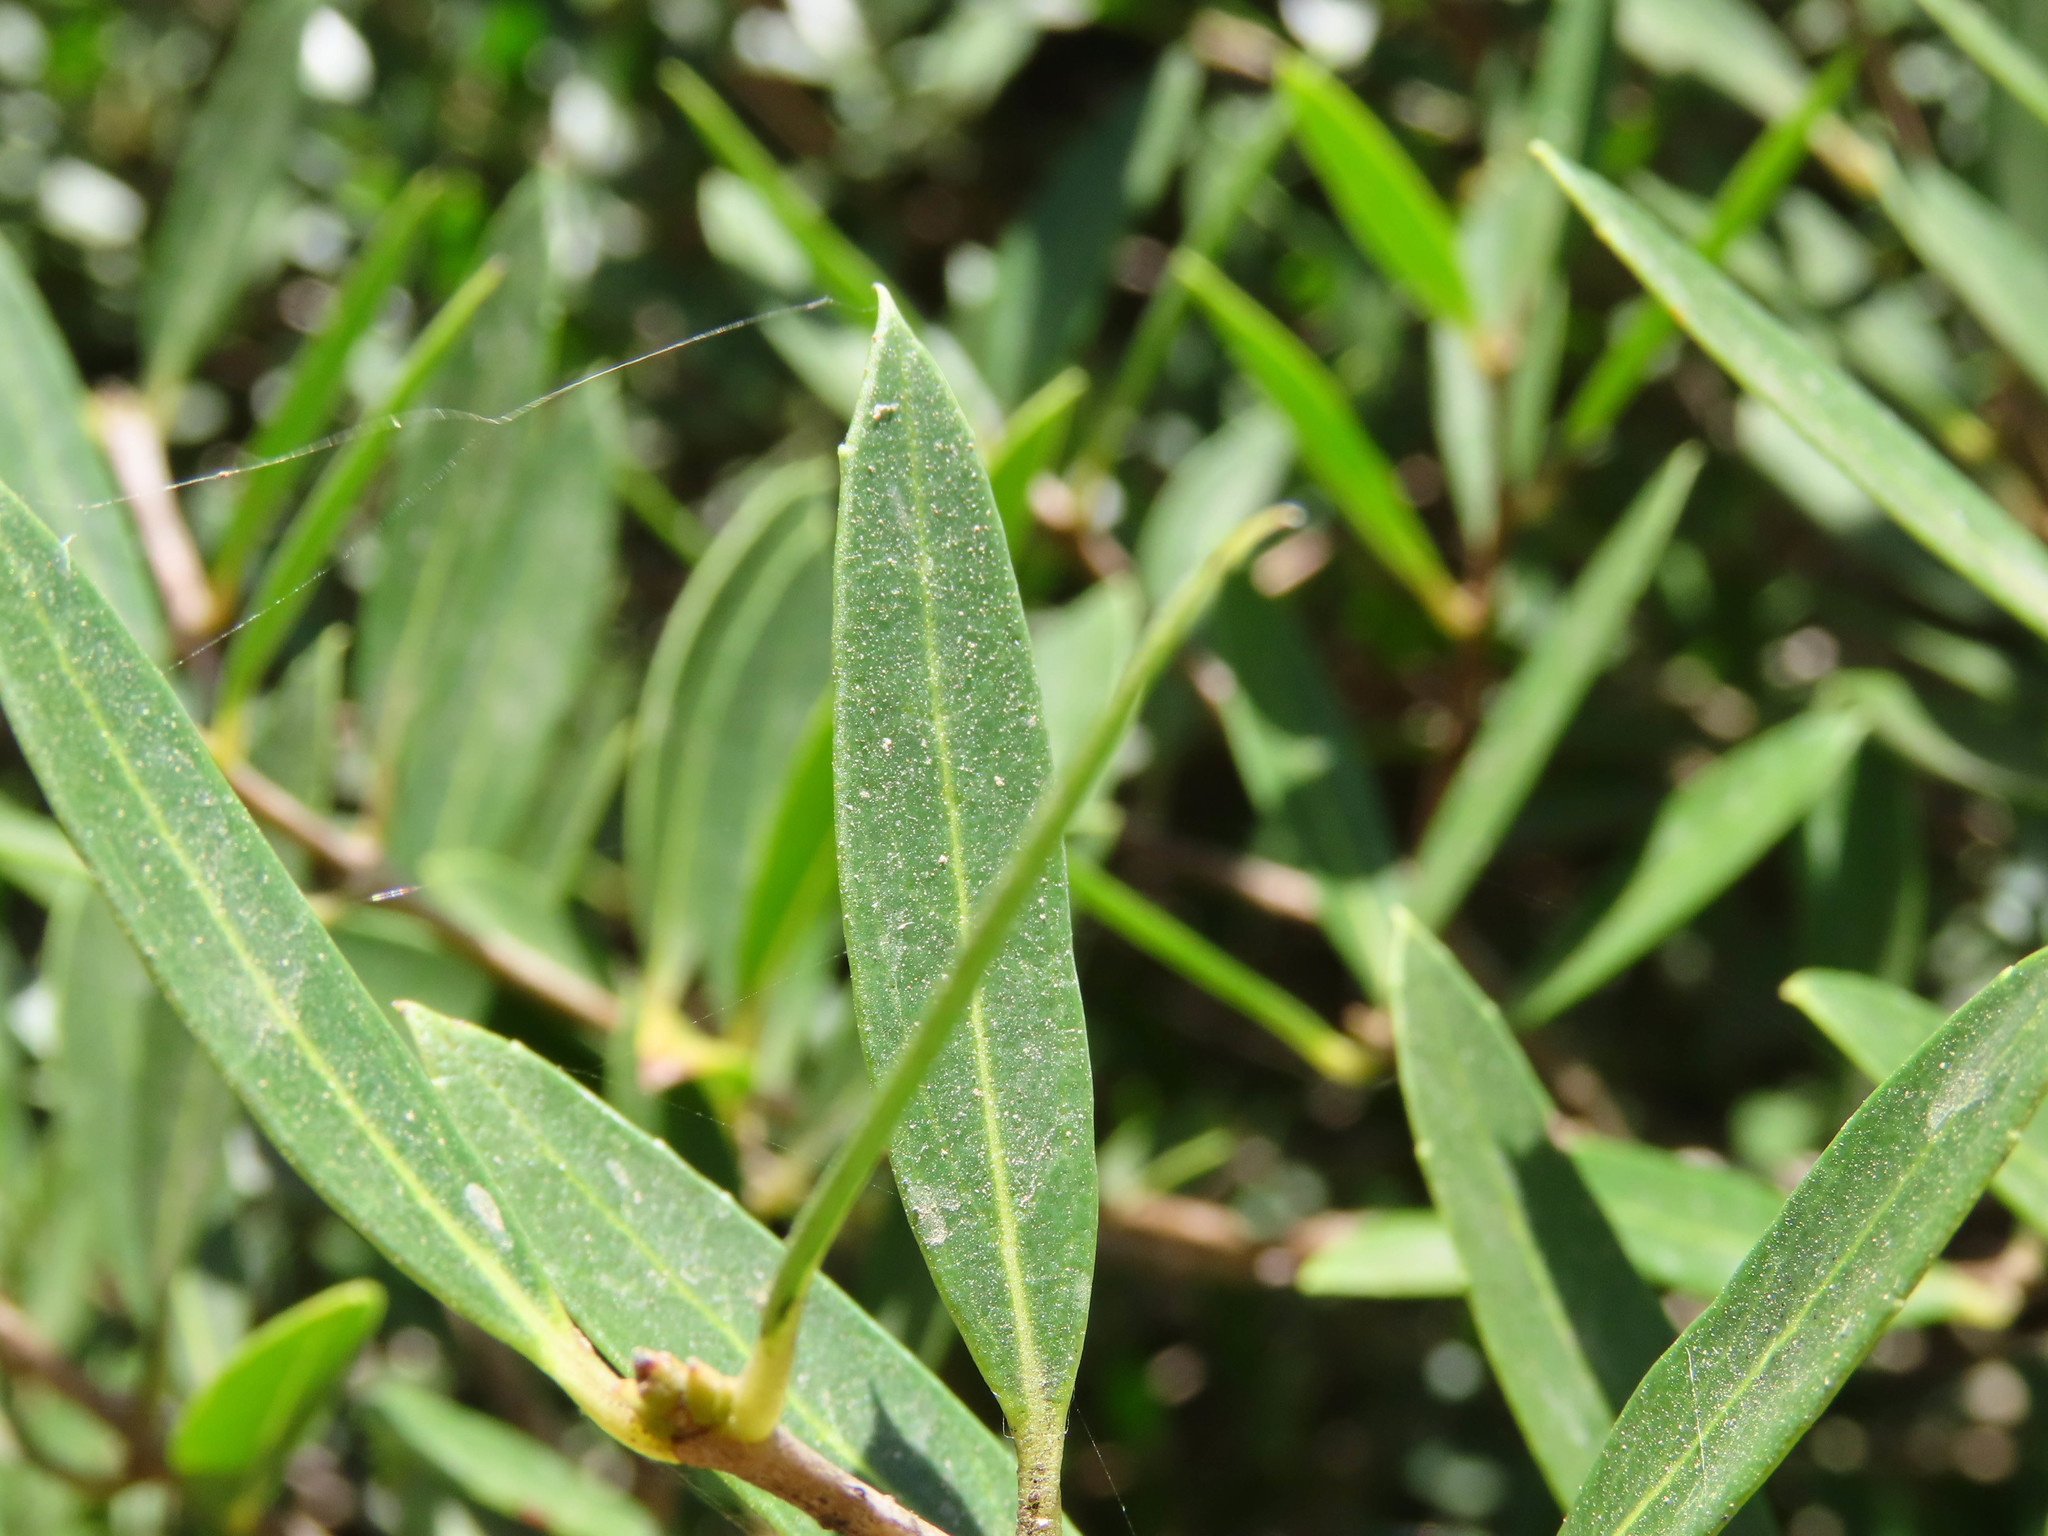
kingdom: Plantae
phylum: Tracheophyta
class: Magnoliopsida
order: Lamiales
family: Oleaceae
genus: Phillyrea
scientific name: Phillyrea angustifolia
